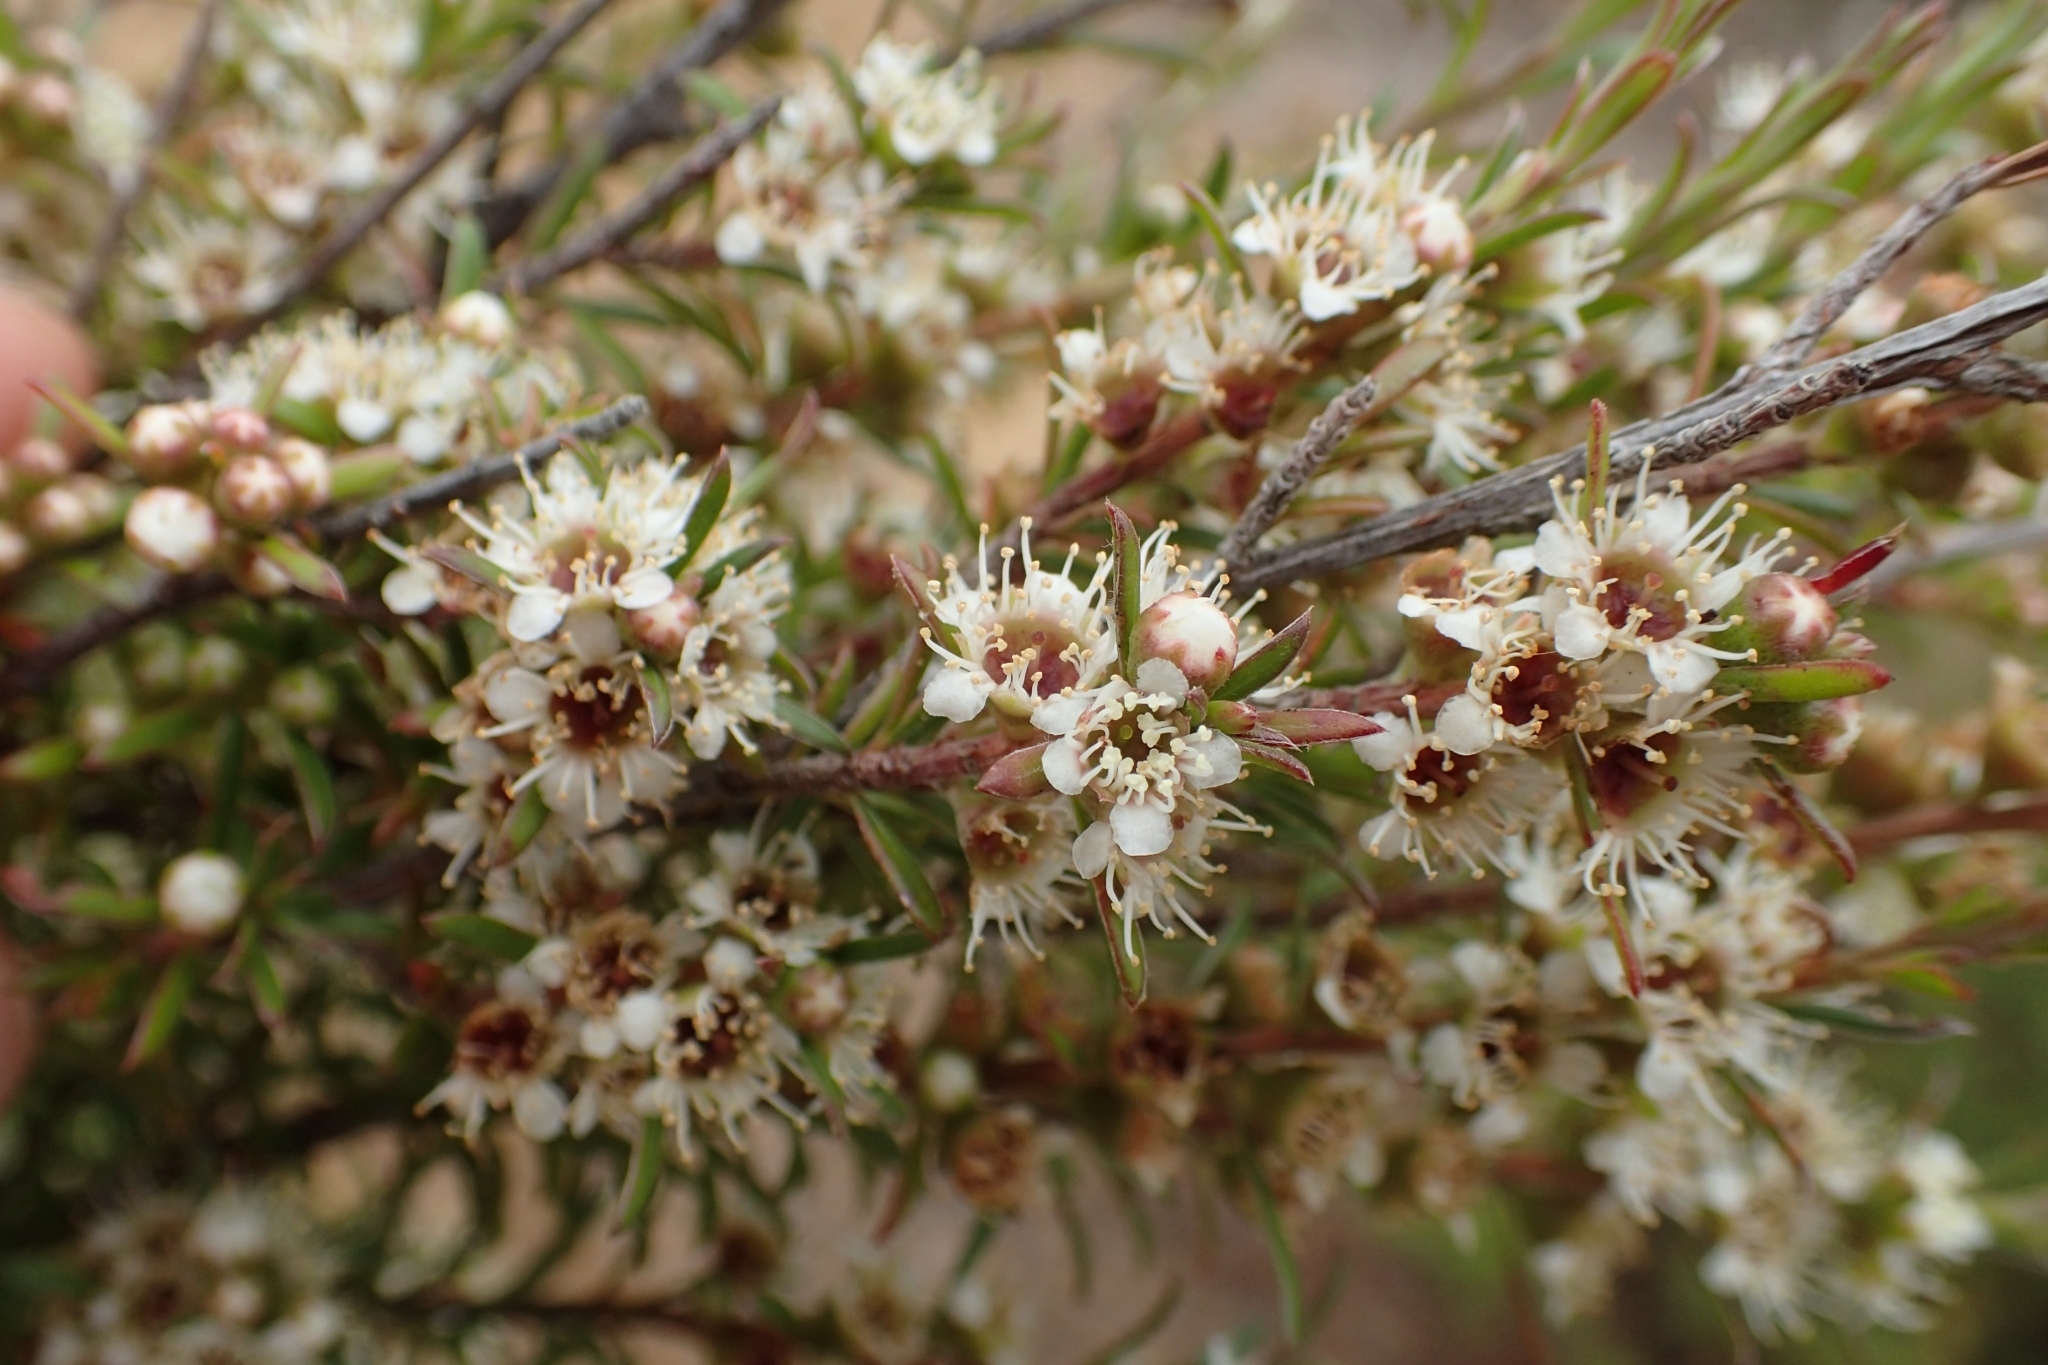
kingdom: Plantae
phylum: Tracheophyta
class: Magnoliopsida
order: Myrtales
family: Myrtaceae
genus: Kunzea
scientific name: Kunzea linearis
